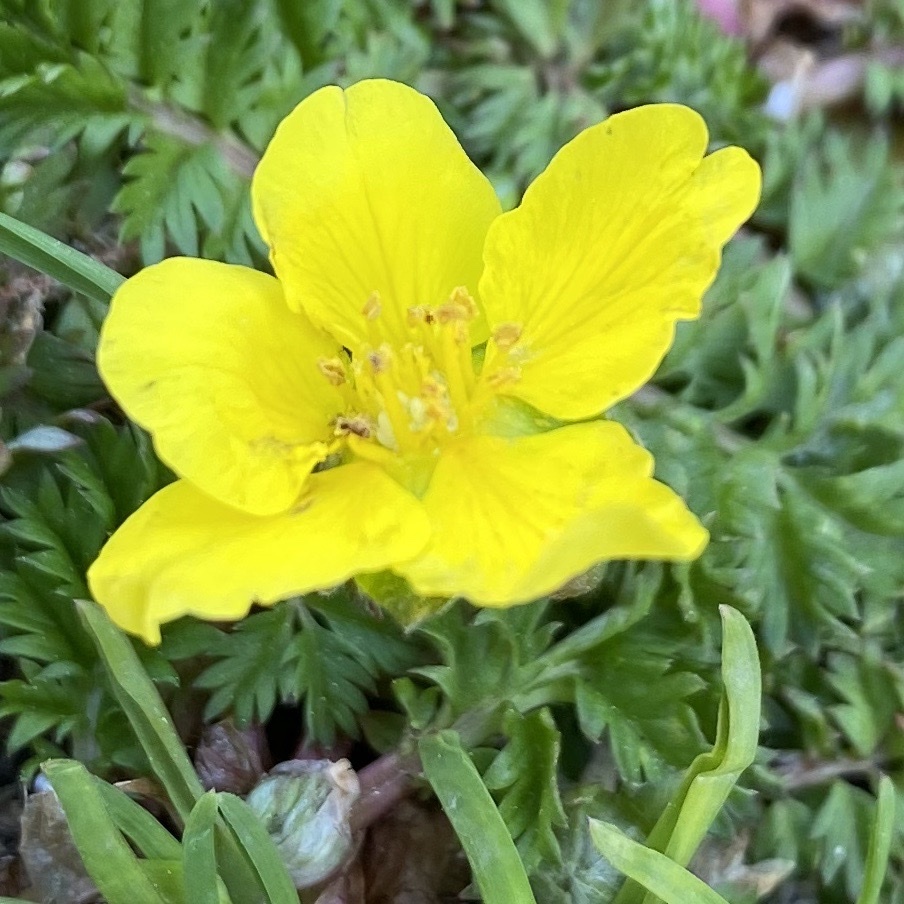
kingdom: Plantae
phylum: Tracheophyta
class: Magnoliopsida
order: Rosales
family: Rosaceae
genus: Argentina
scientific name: Argentina anserina
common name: Common silverweed
